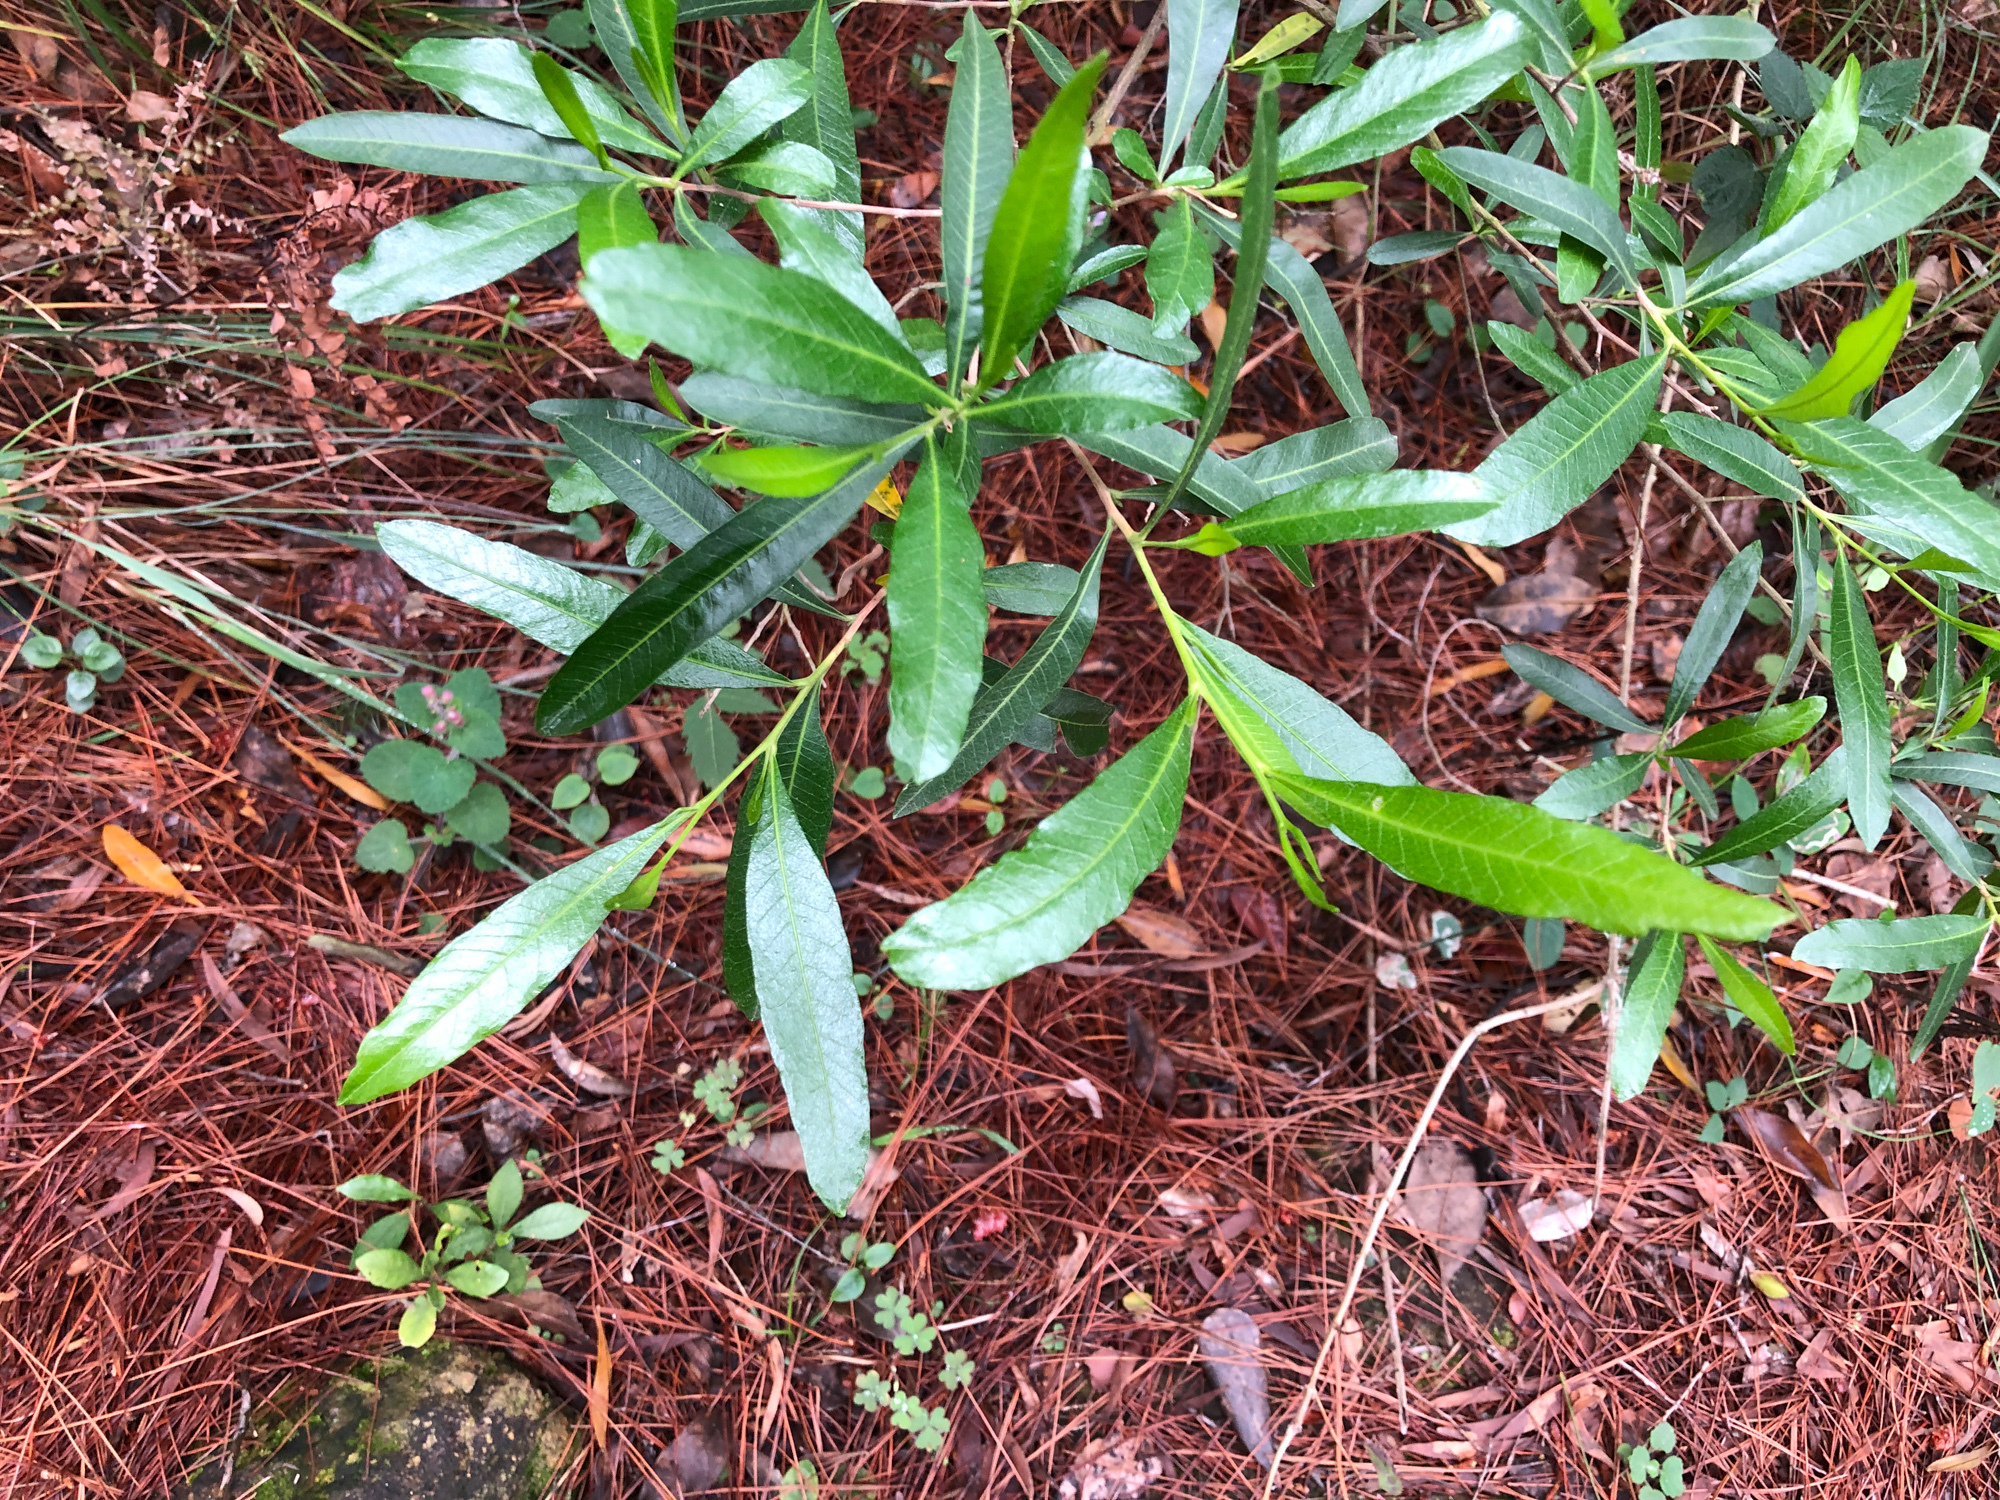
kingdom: Plantae
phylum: Tracheophyta
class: Magnoliopsida
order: Sapindales
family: Sapindaceae
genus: Dodonaea
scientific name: Dodonaea viscosa
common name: Hopbush
